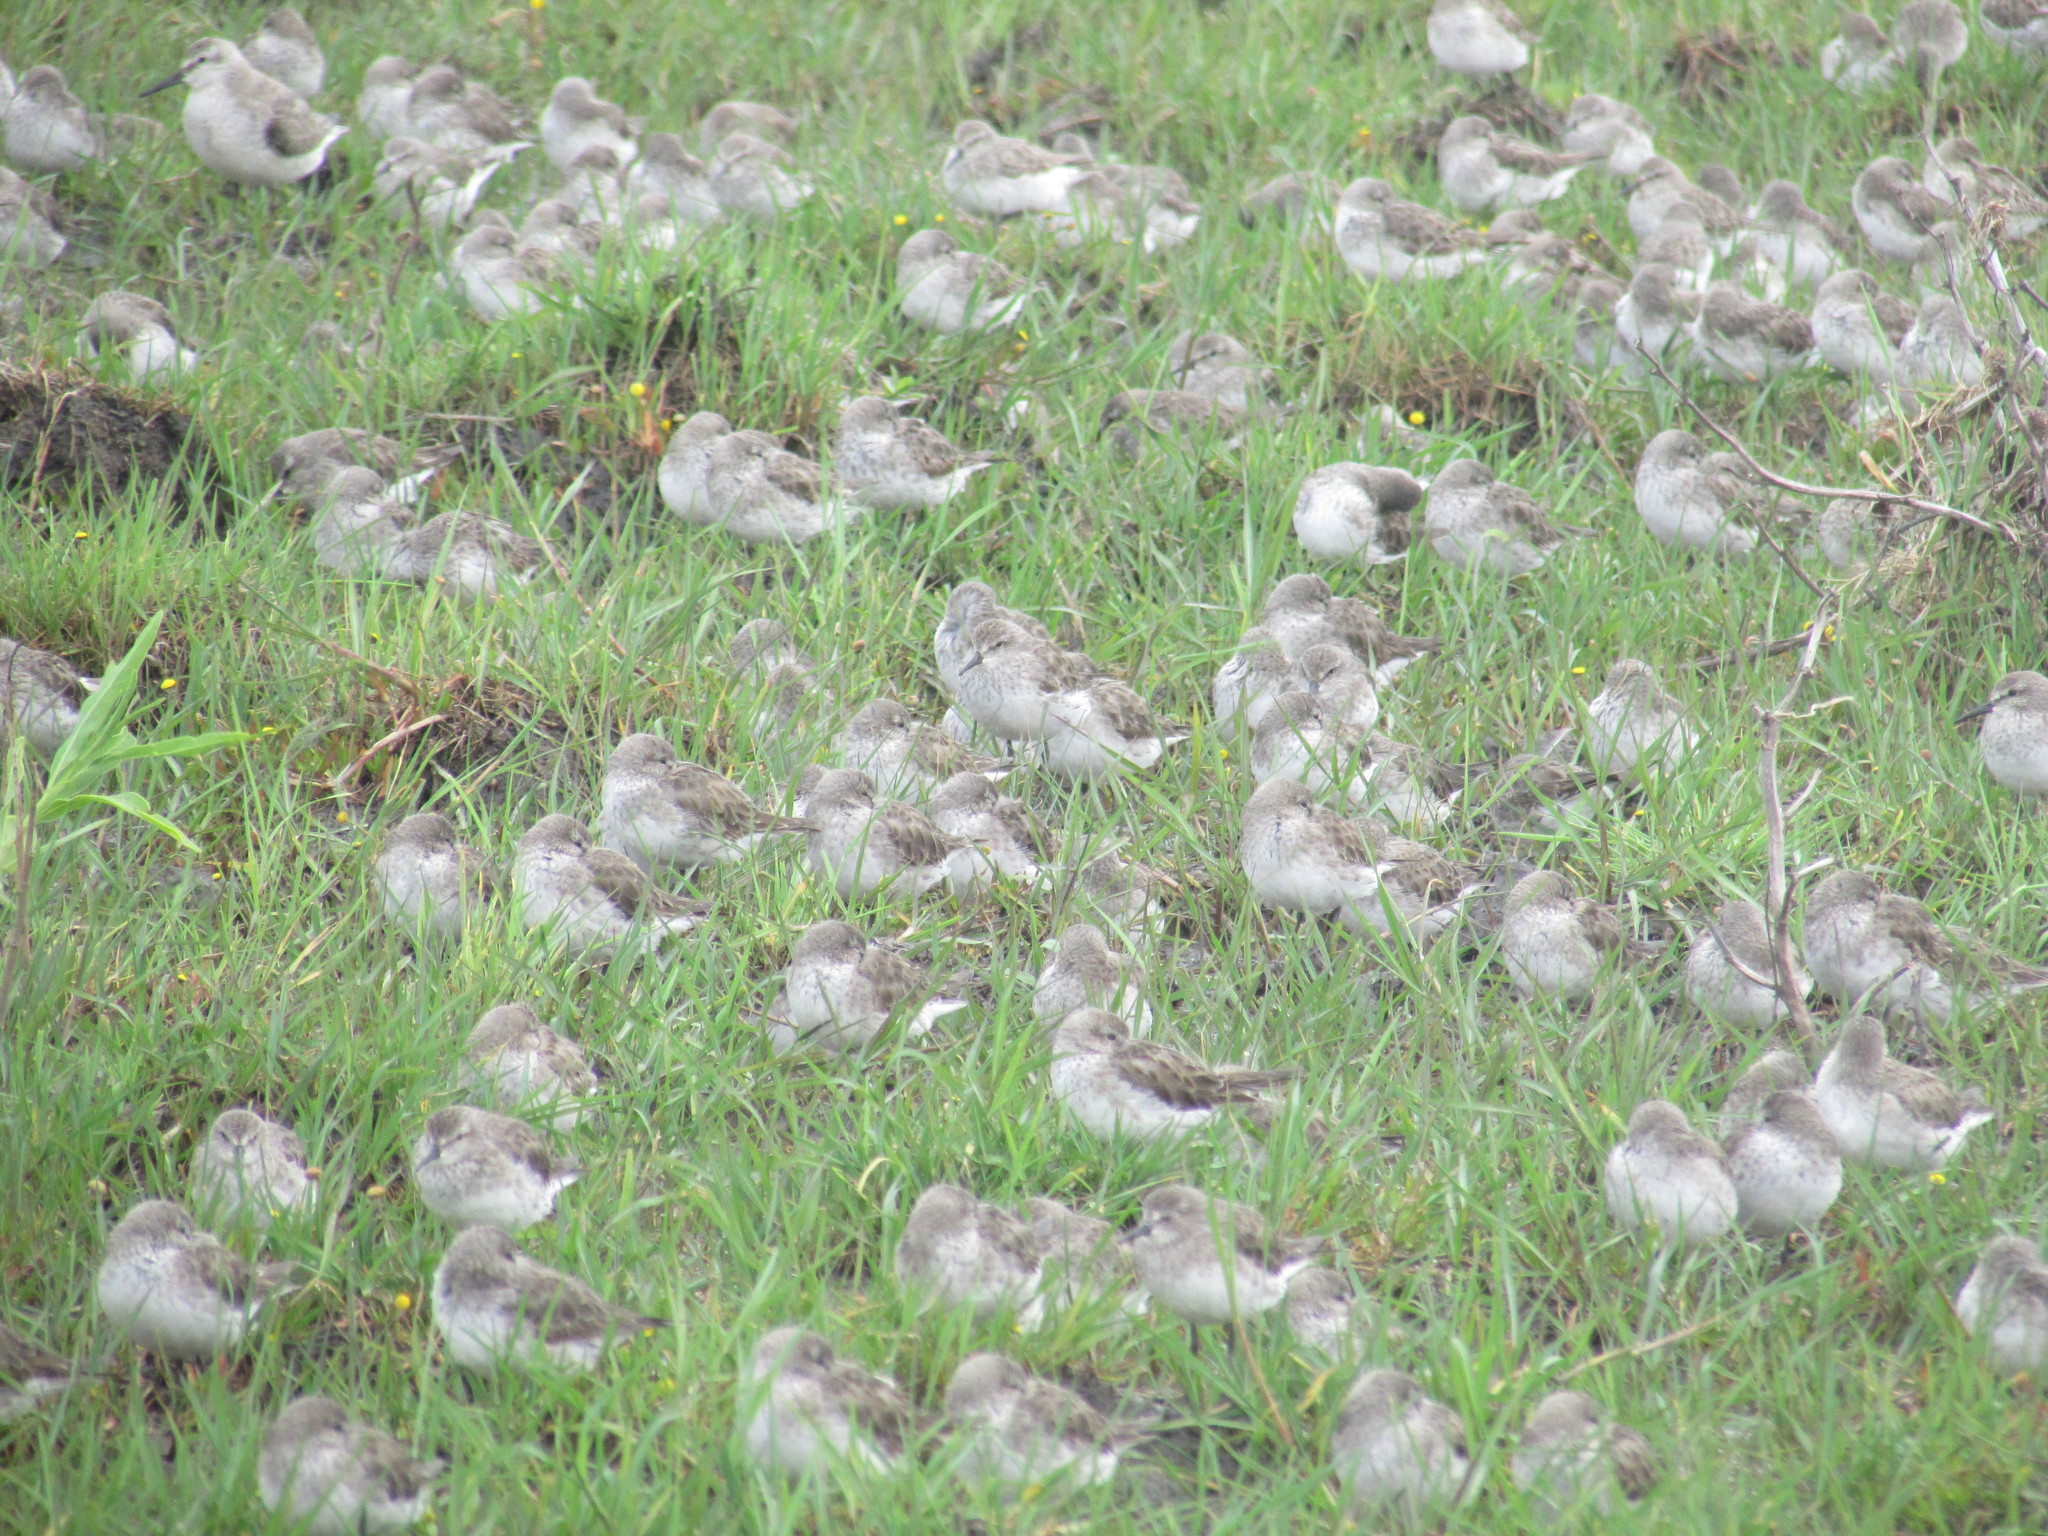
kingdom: Animalia
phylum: Chordata
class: Aves
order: Charadriiformes
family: Scolopacidae
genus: Calidris
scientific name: Calidris fuscicollis
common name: White-rumped sandpiper
